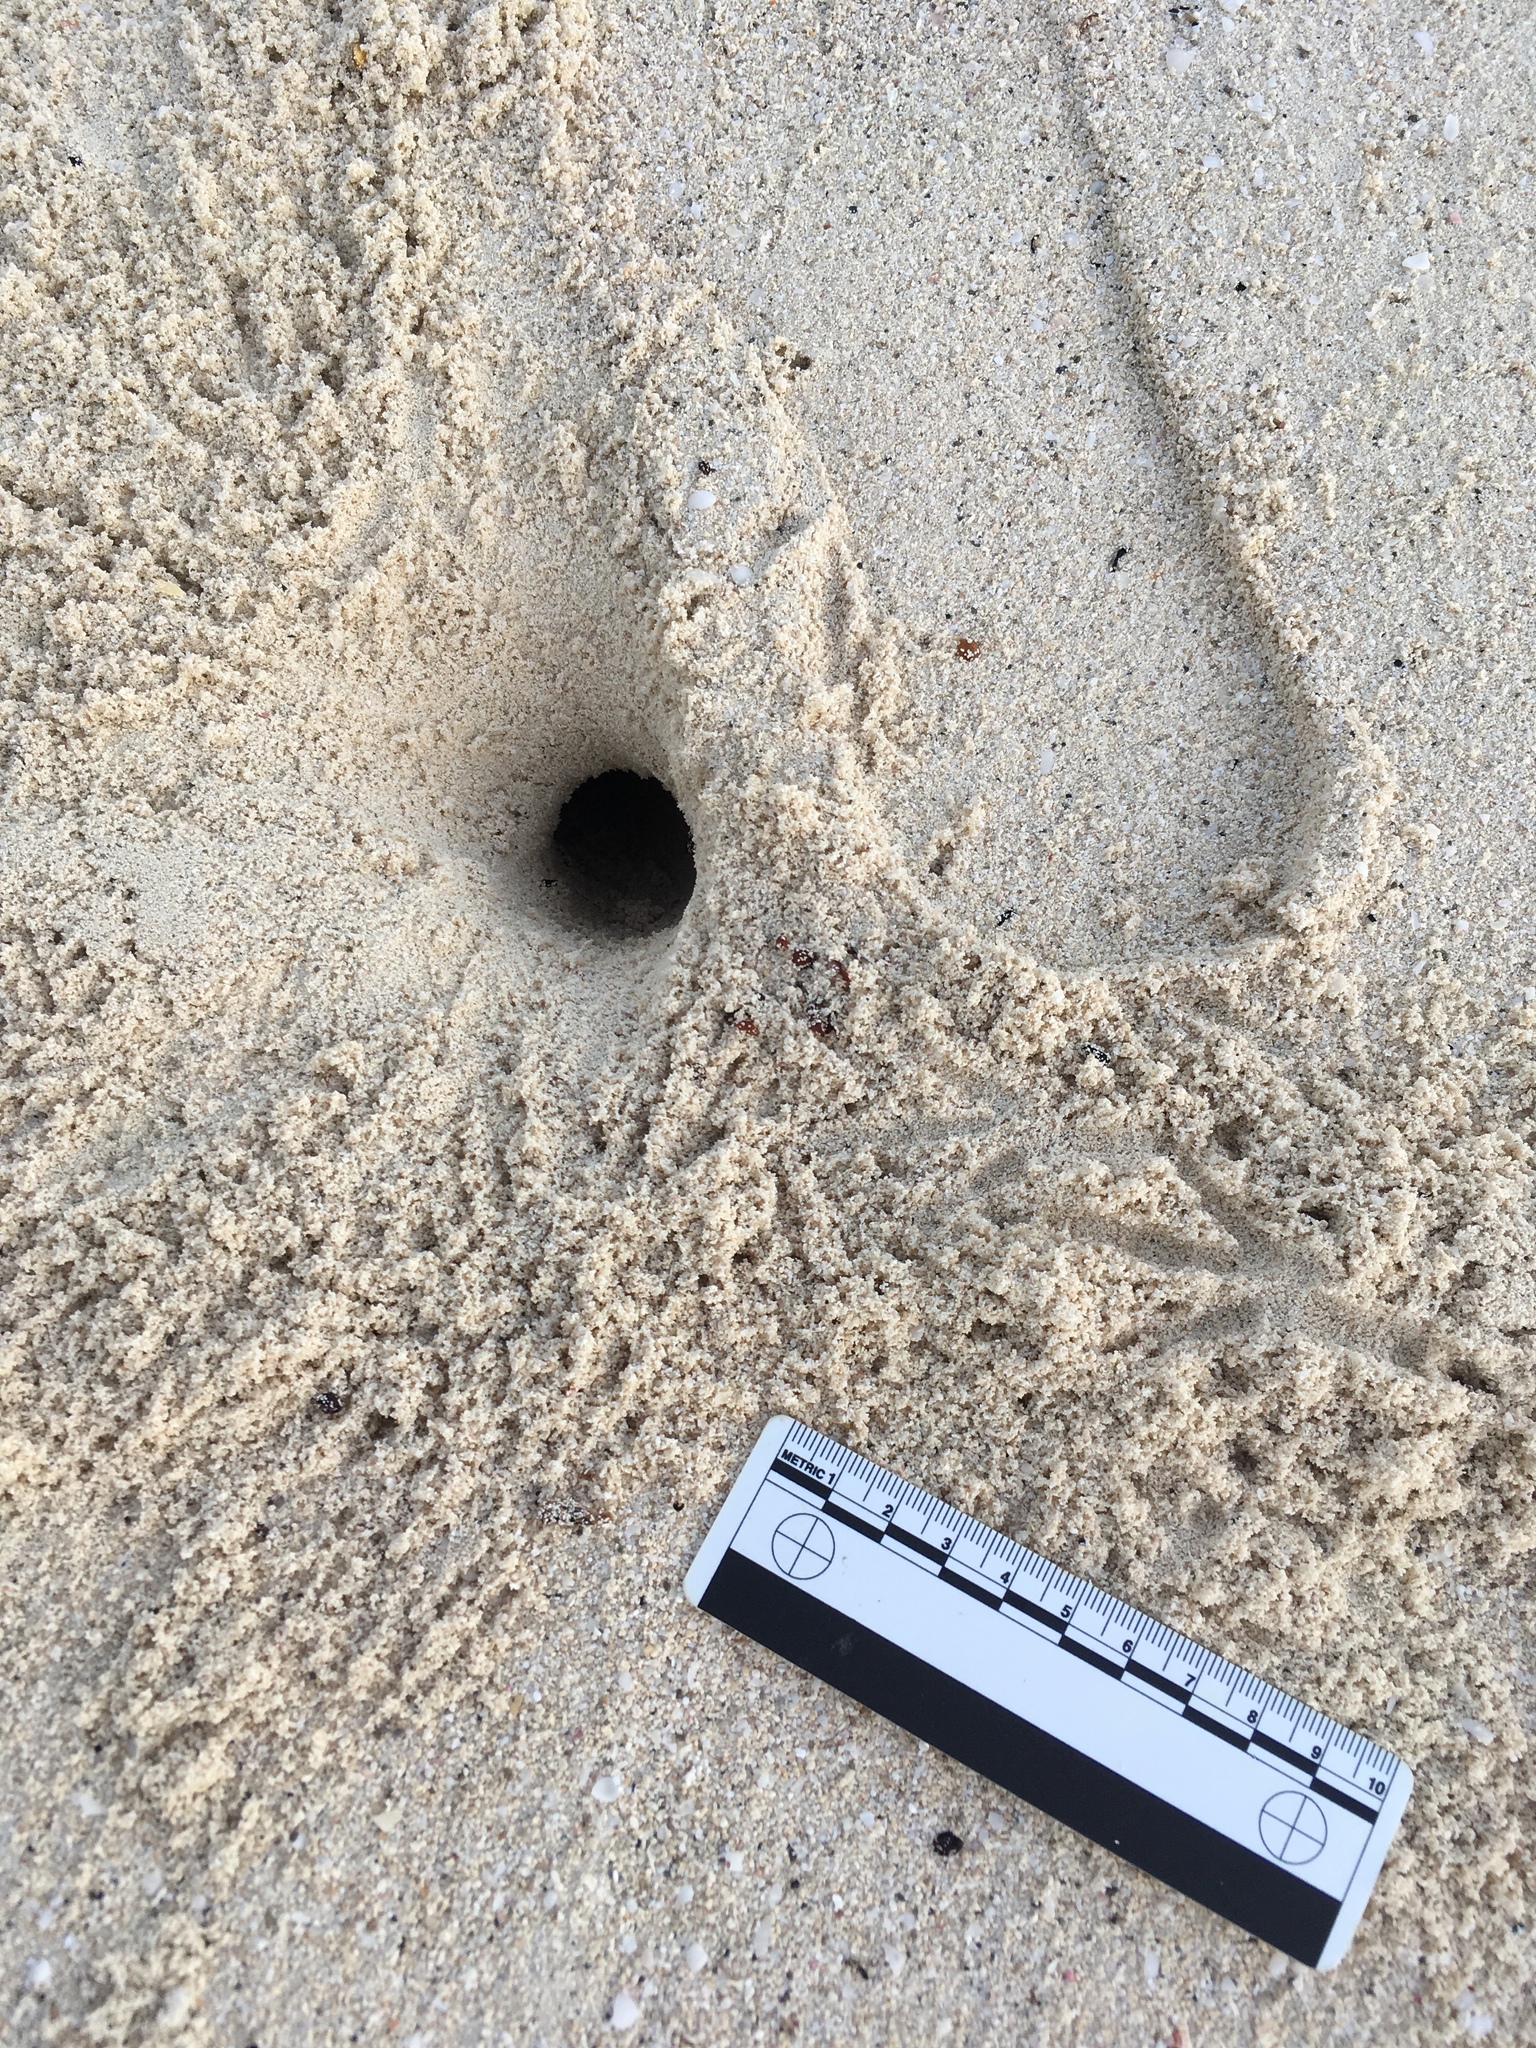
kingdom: Animalia
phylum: Arthropoda
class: Malacostraca
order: Decapoda
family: Ocypodidae
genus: Ocypode
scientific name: Ocypode quadrata
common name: Ghost crab
